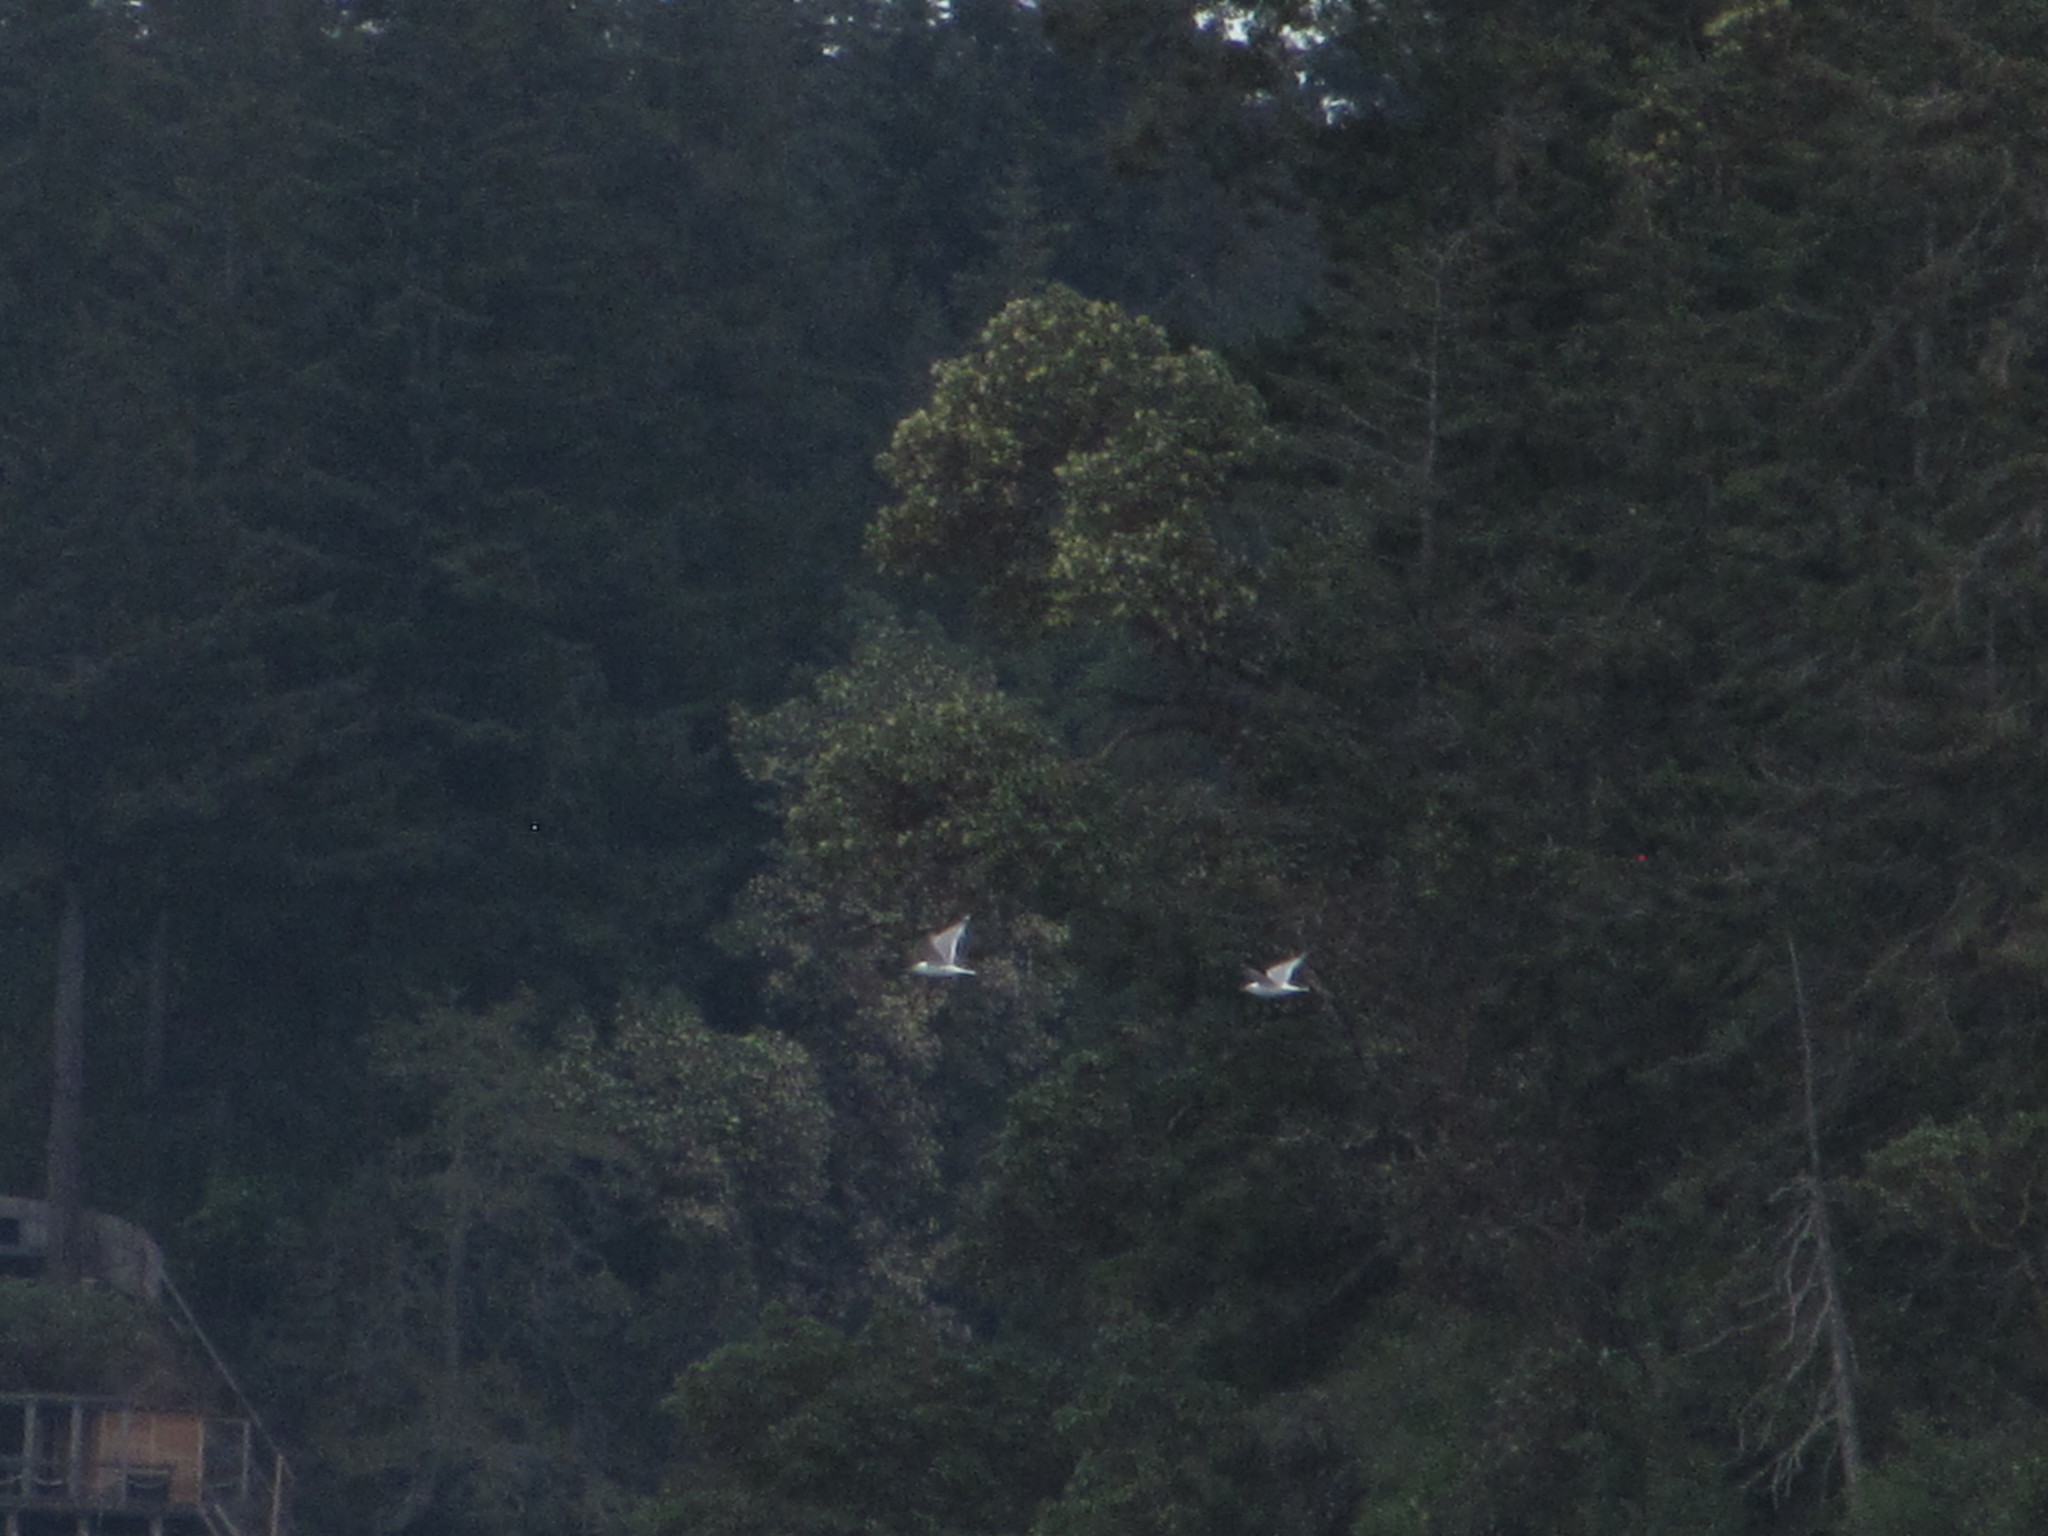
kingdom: Animalia
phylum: Chordata
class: Aves
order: Charadriiformes
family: Laridae
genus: Larus
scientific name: Larus brachyrhynchus
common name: Short-billed gull
